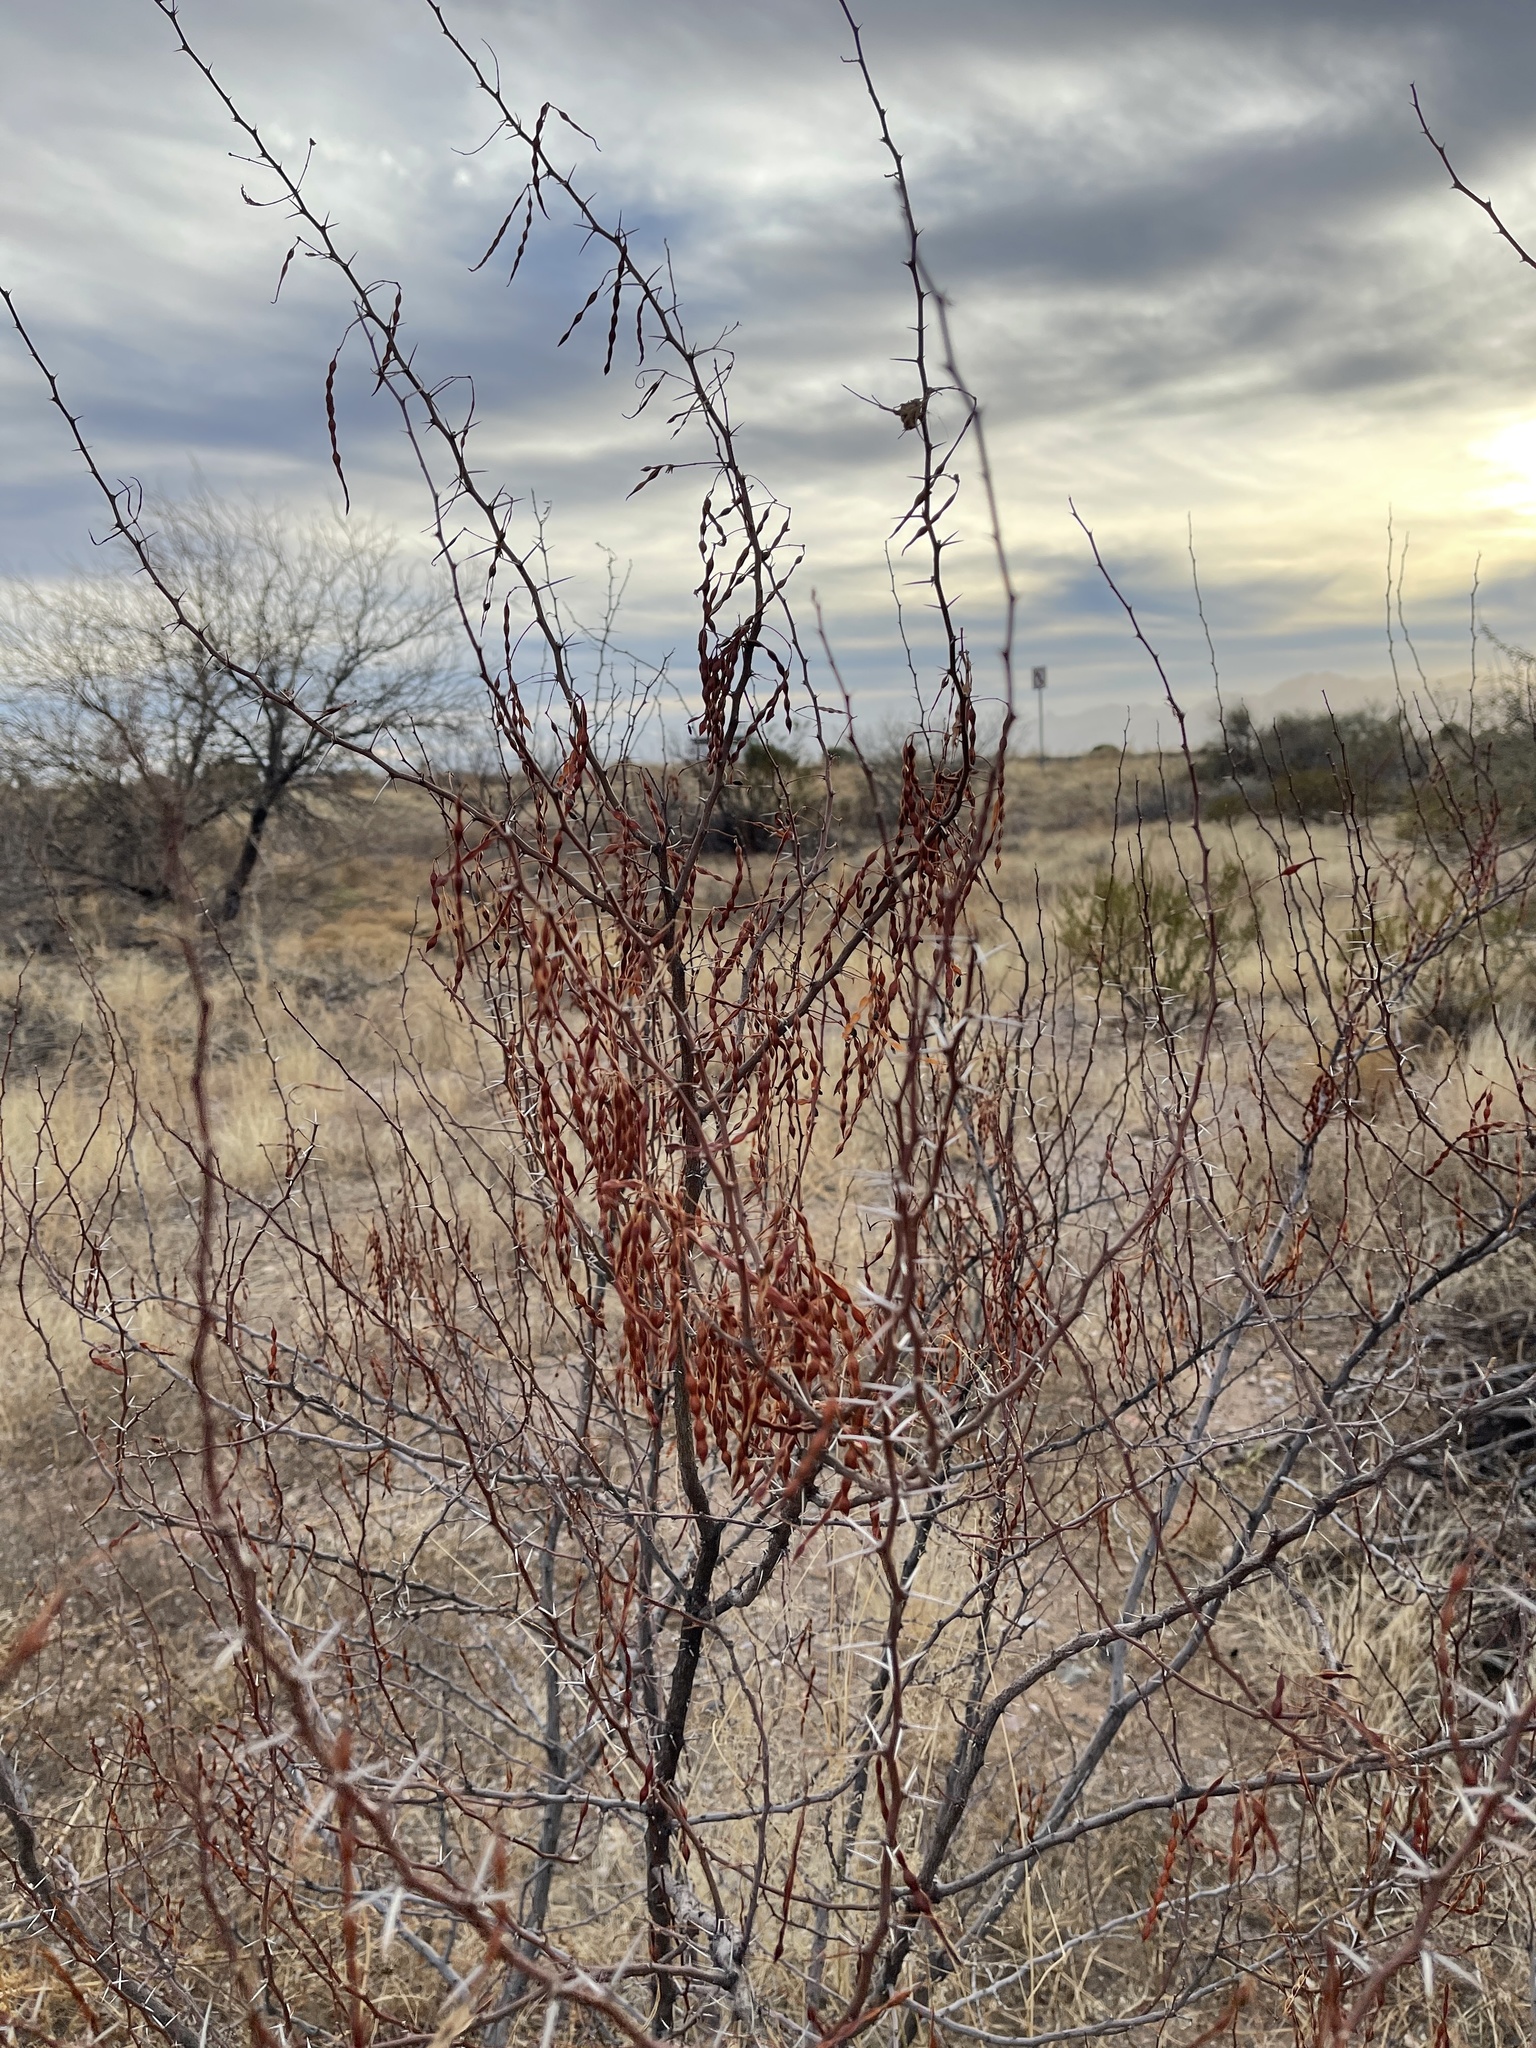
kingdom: Plantae
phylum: Tracheophyta
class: Magnoliopsida
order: Fabales
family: Fabaceae
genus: Vachellia
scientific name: Vachellia vernicosa
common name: Viscid acacia
